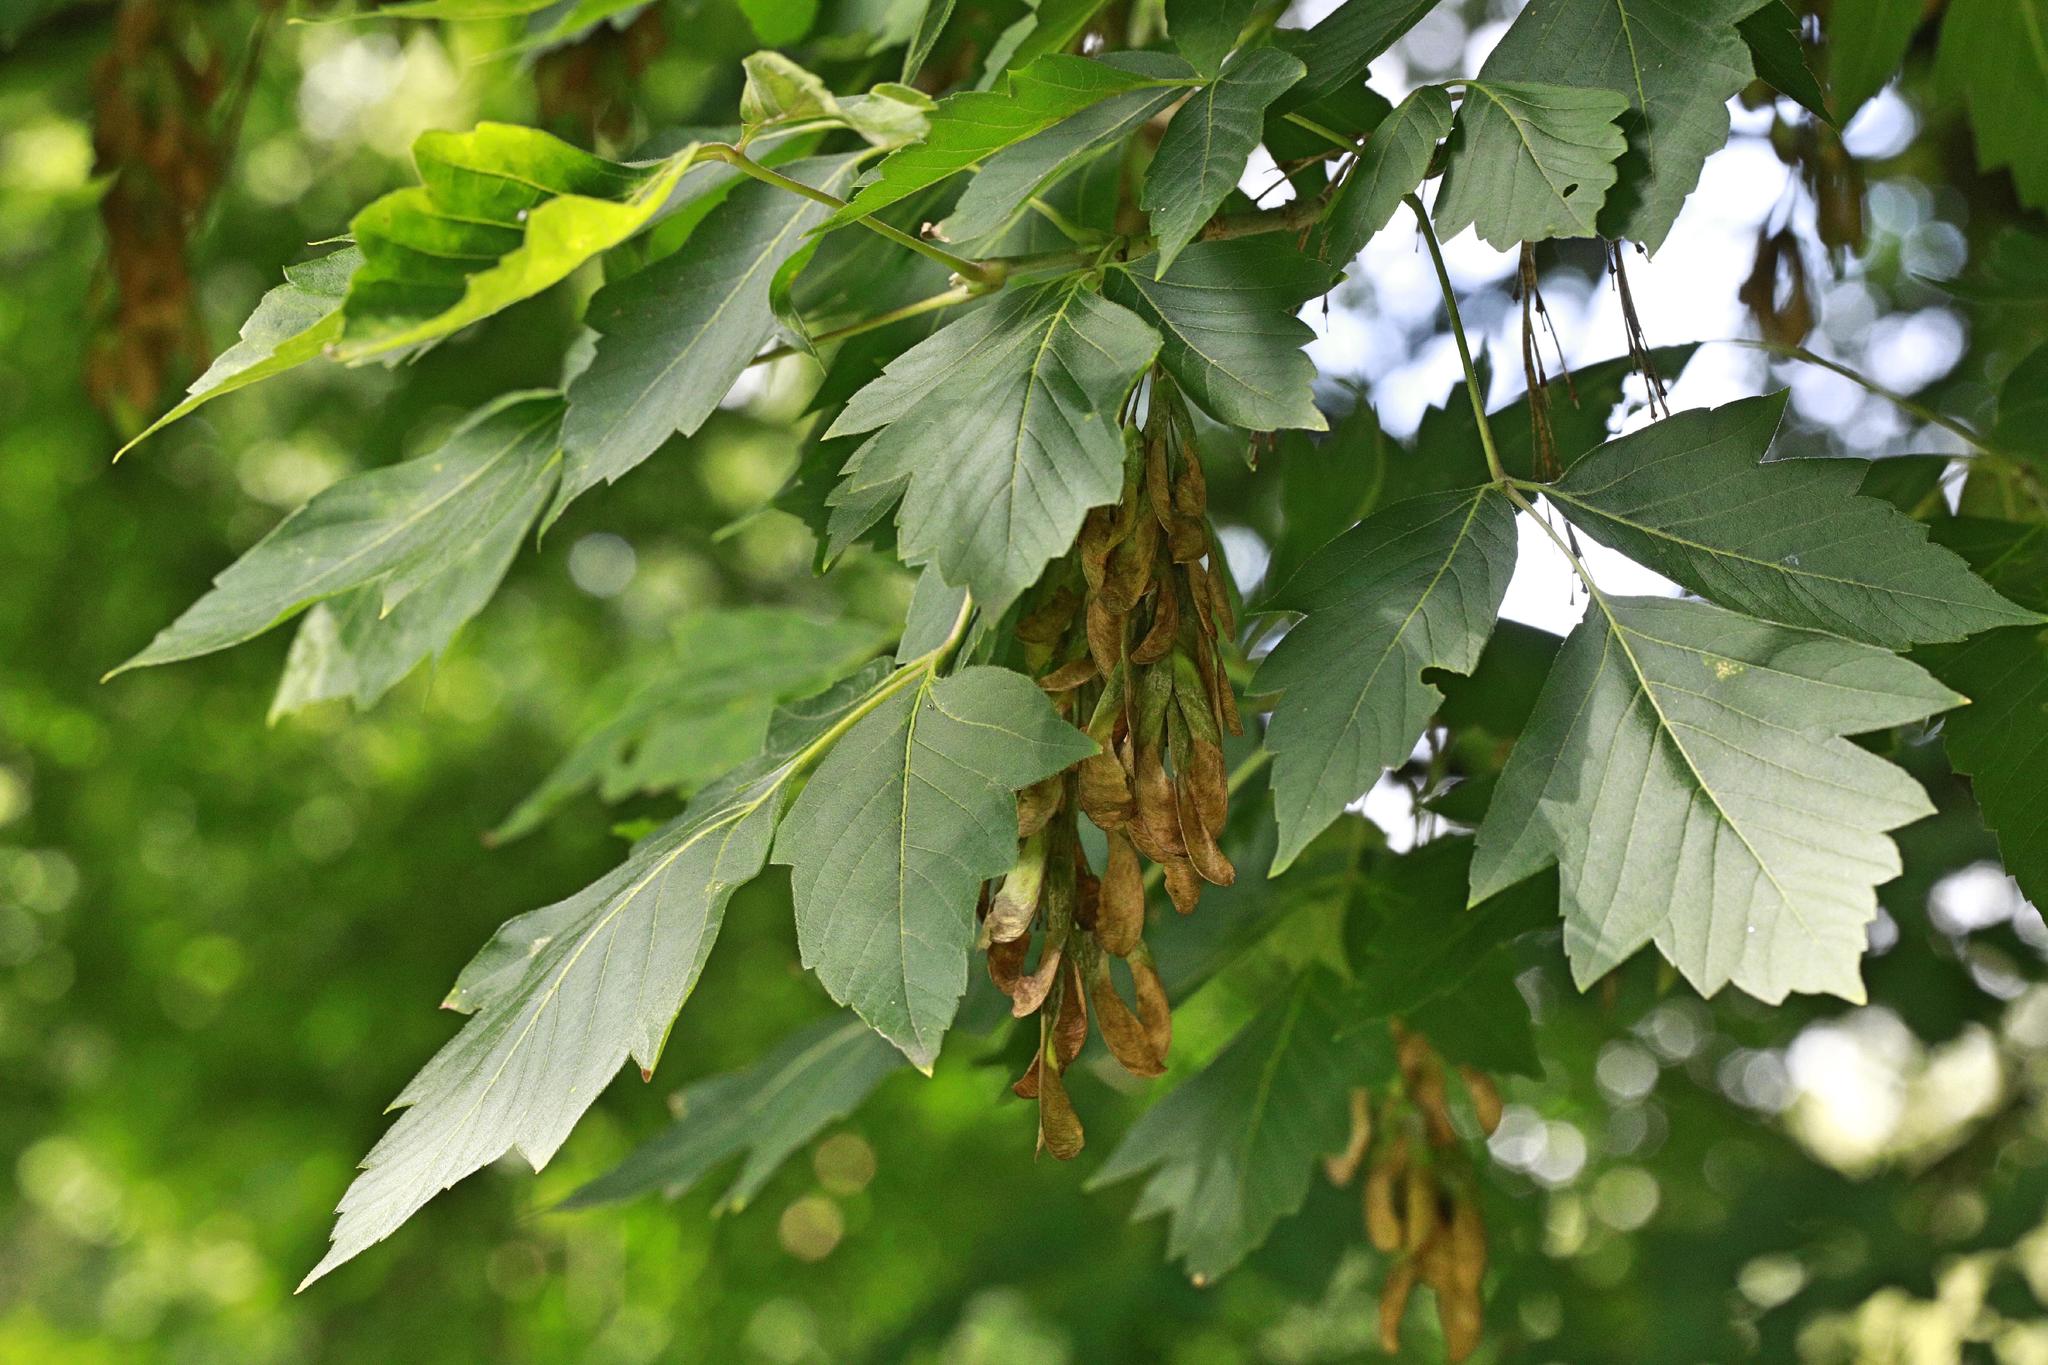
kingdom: Plantae
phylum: Tracheophyta
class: Magnoliopsida
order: Sapindales
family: Sapindaceae
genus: Acer
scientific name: Acer negundo
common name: Ashleaf maple
